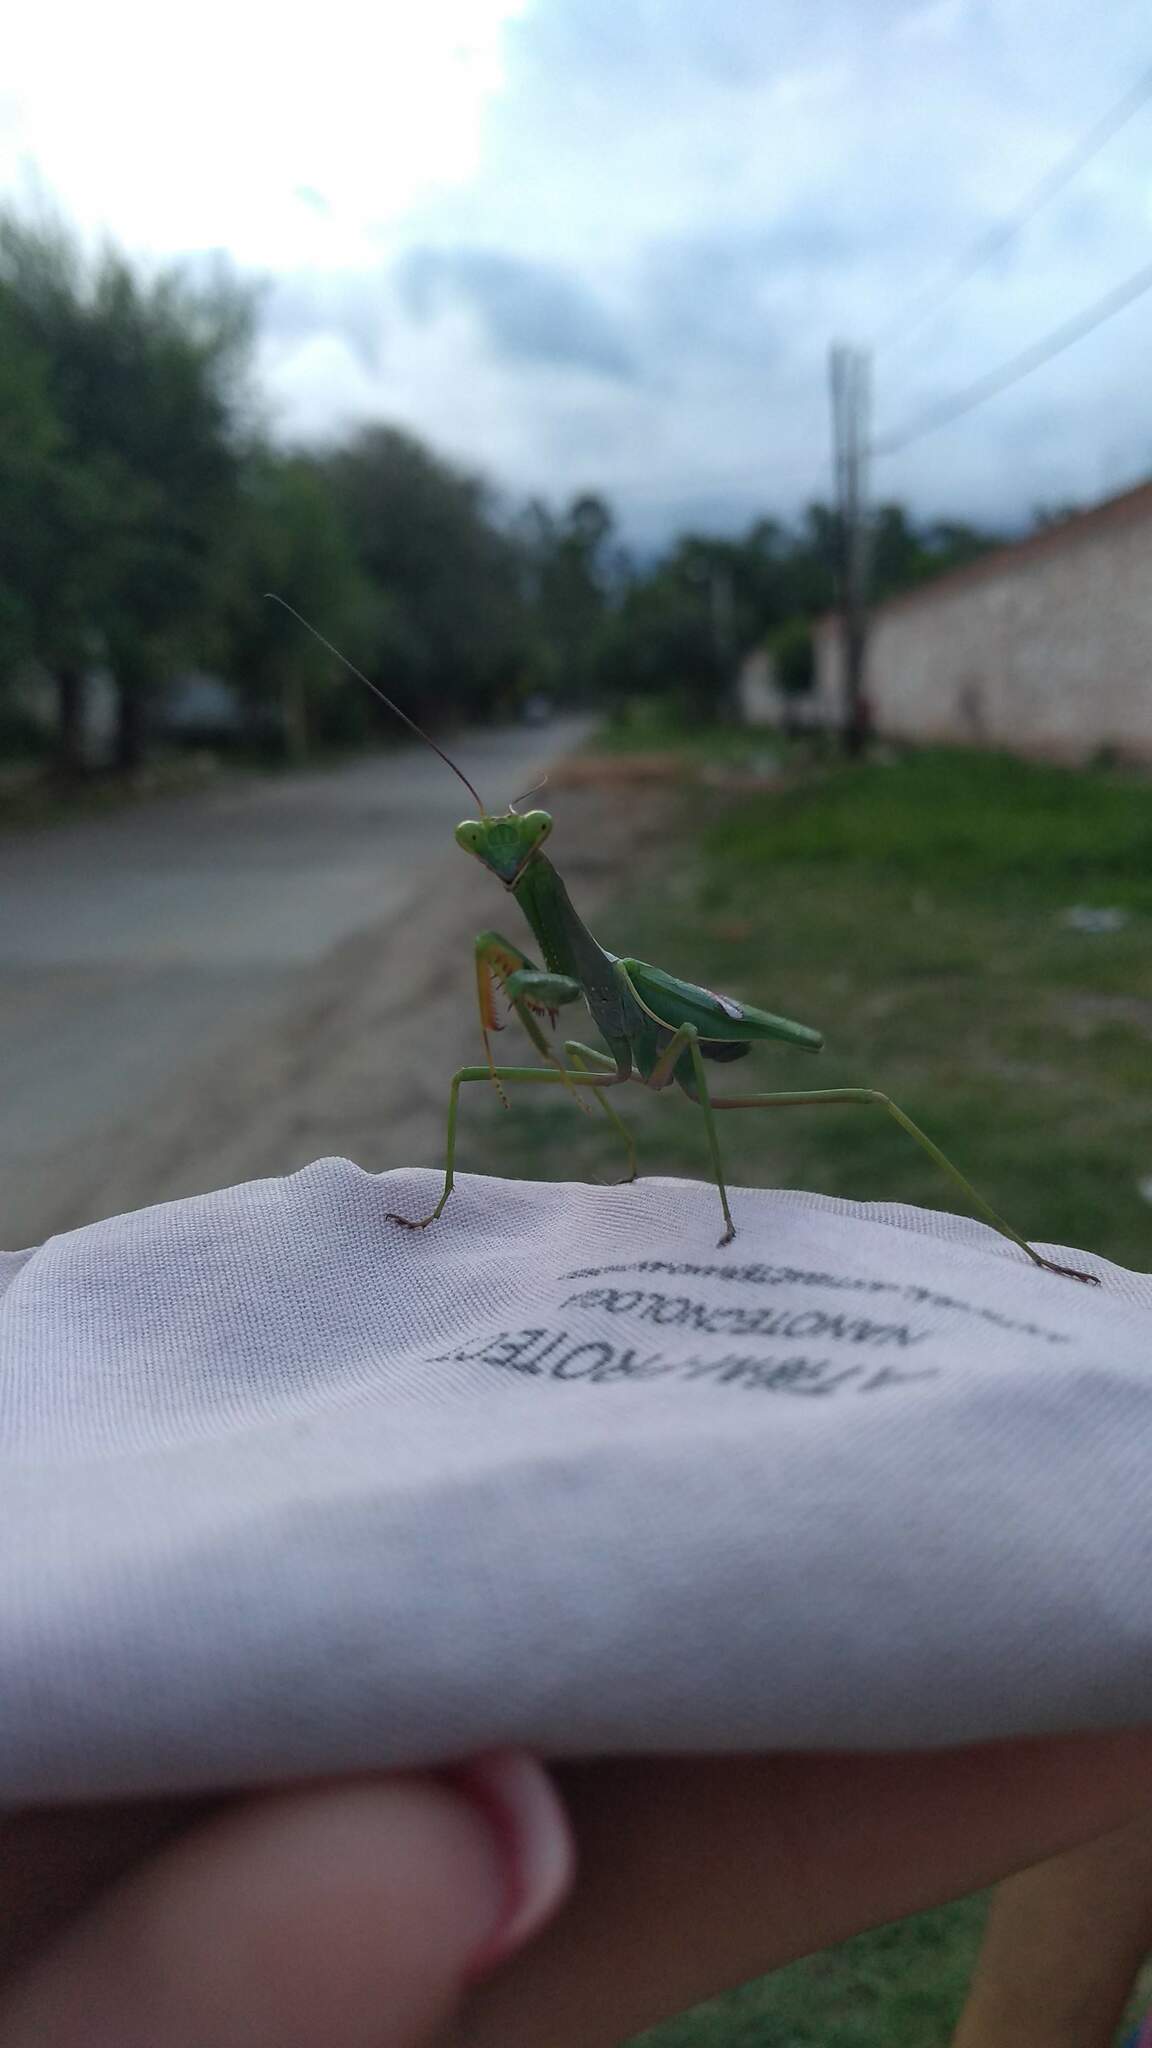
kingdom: Animalia
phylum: Arthropoda
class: Insecta
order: Mantodea
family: Mantidae
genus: Stagmatoptera
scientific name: Stagmatoptera hyaloptera
